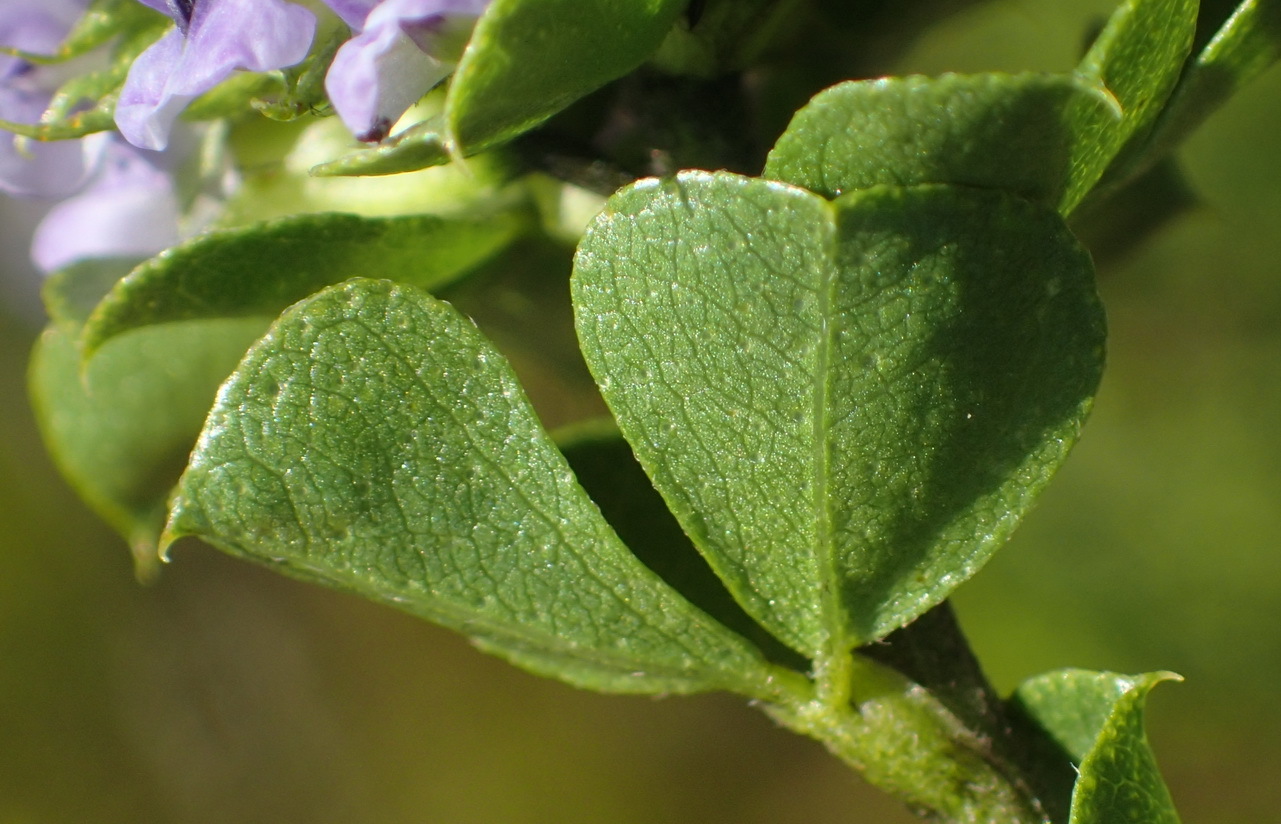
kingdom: Plantae
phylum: Tracheophyta
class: Magnoliopsida
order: Fabales
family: Fabaceae
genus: Psoralea
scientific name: Psoralea acuminata
